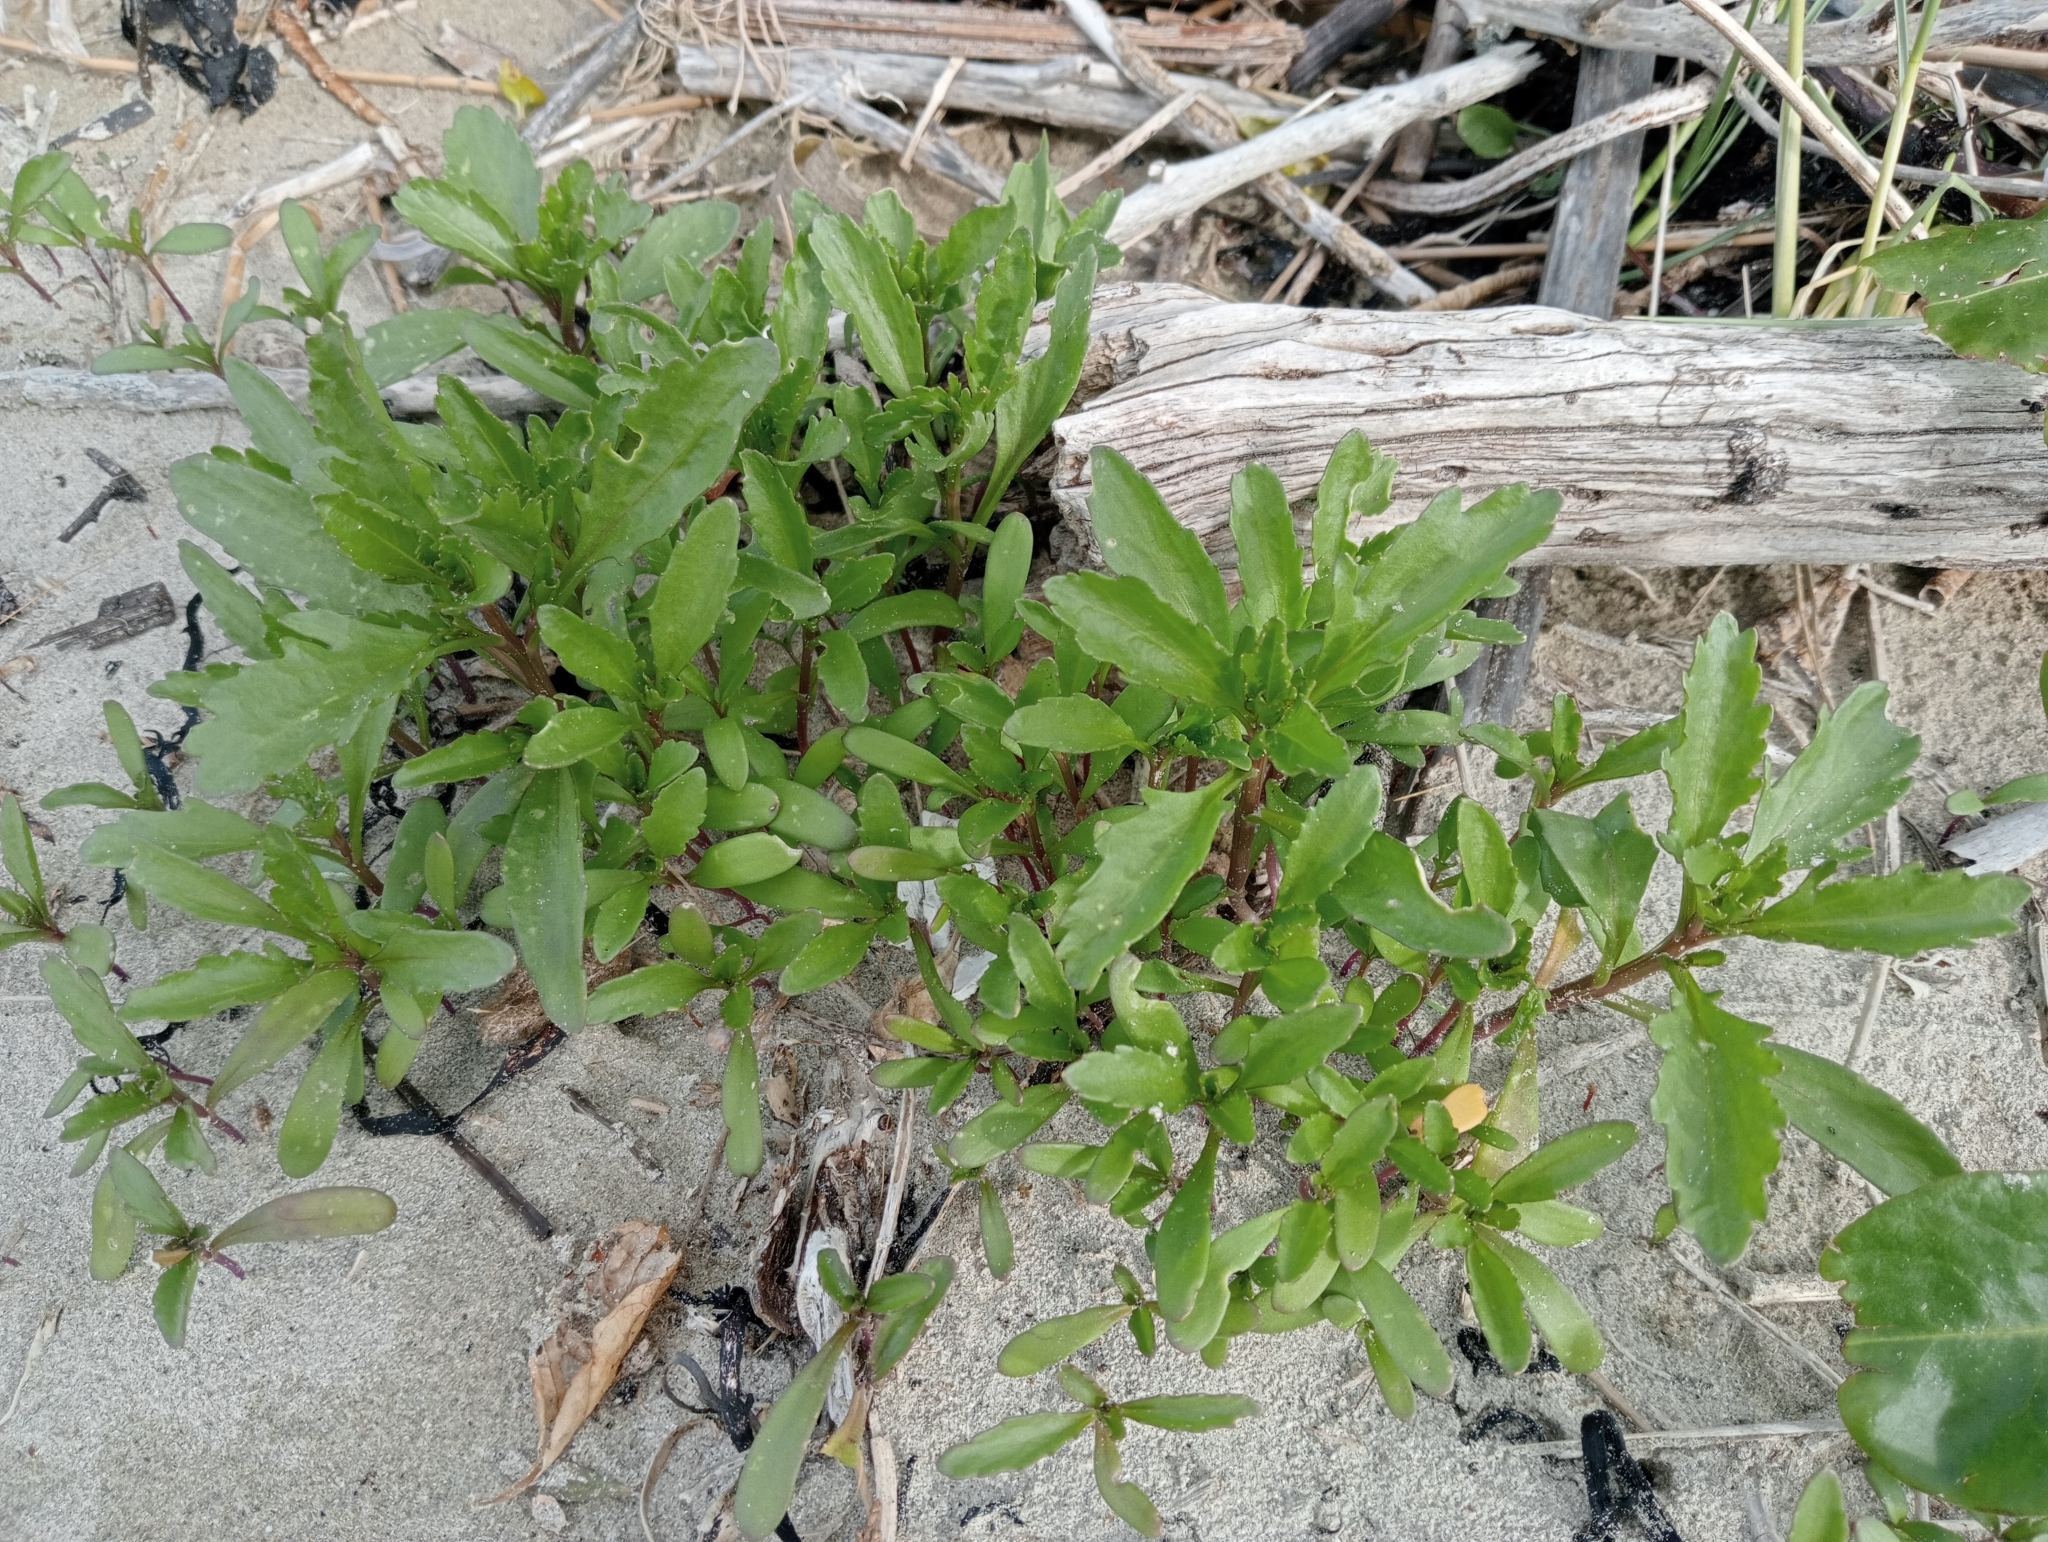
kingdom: Plantae
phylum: Tracheophyta
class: Magnoliopsida
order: Brassicales
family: Brassicaceae
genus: Cakile
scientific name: Cakile edentula
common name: American sea rocket
